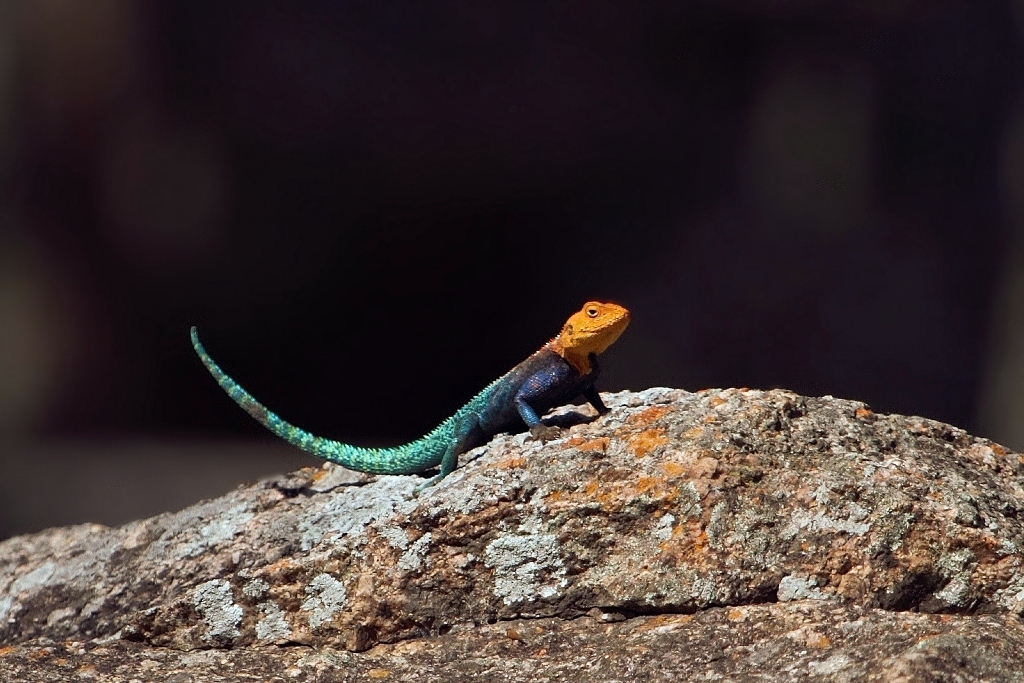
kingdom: Animalia
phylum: Chordata
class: Squamata
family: Agamidae
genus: Agama
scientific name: Agama kirkii
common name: Kirk's rock agama
